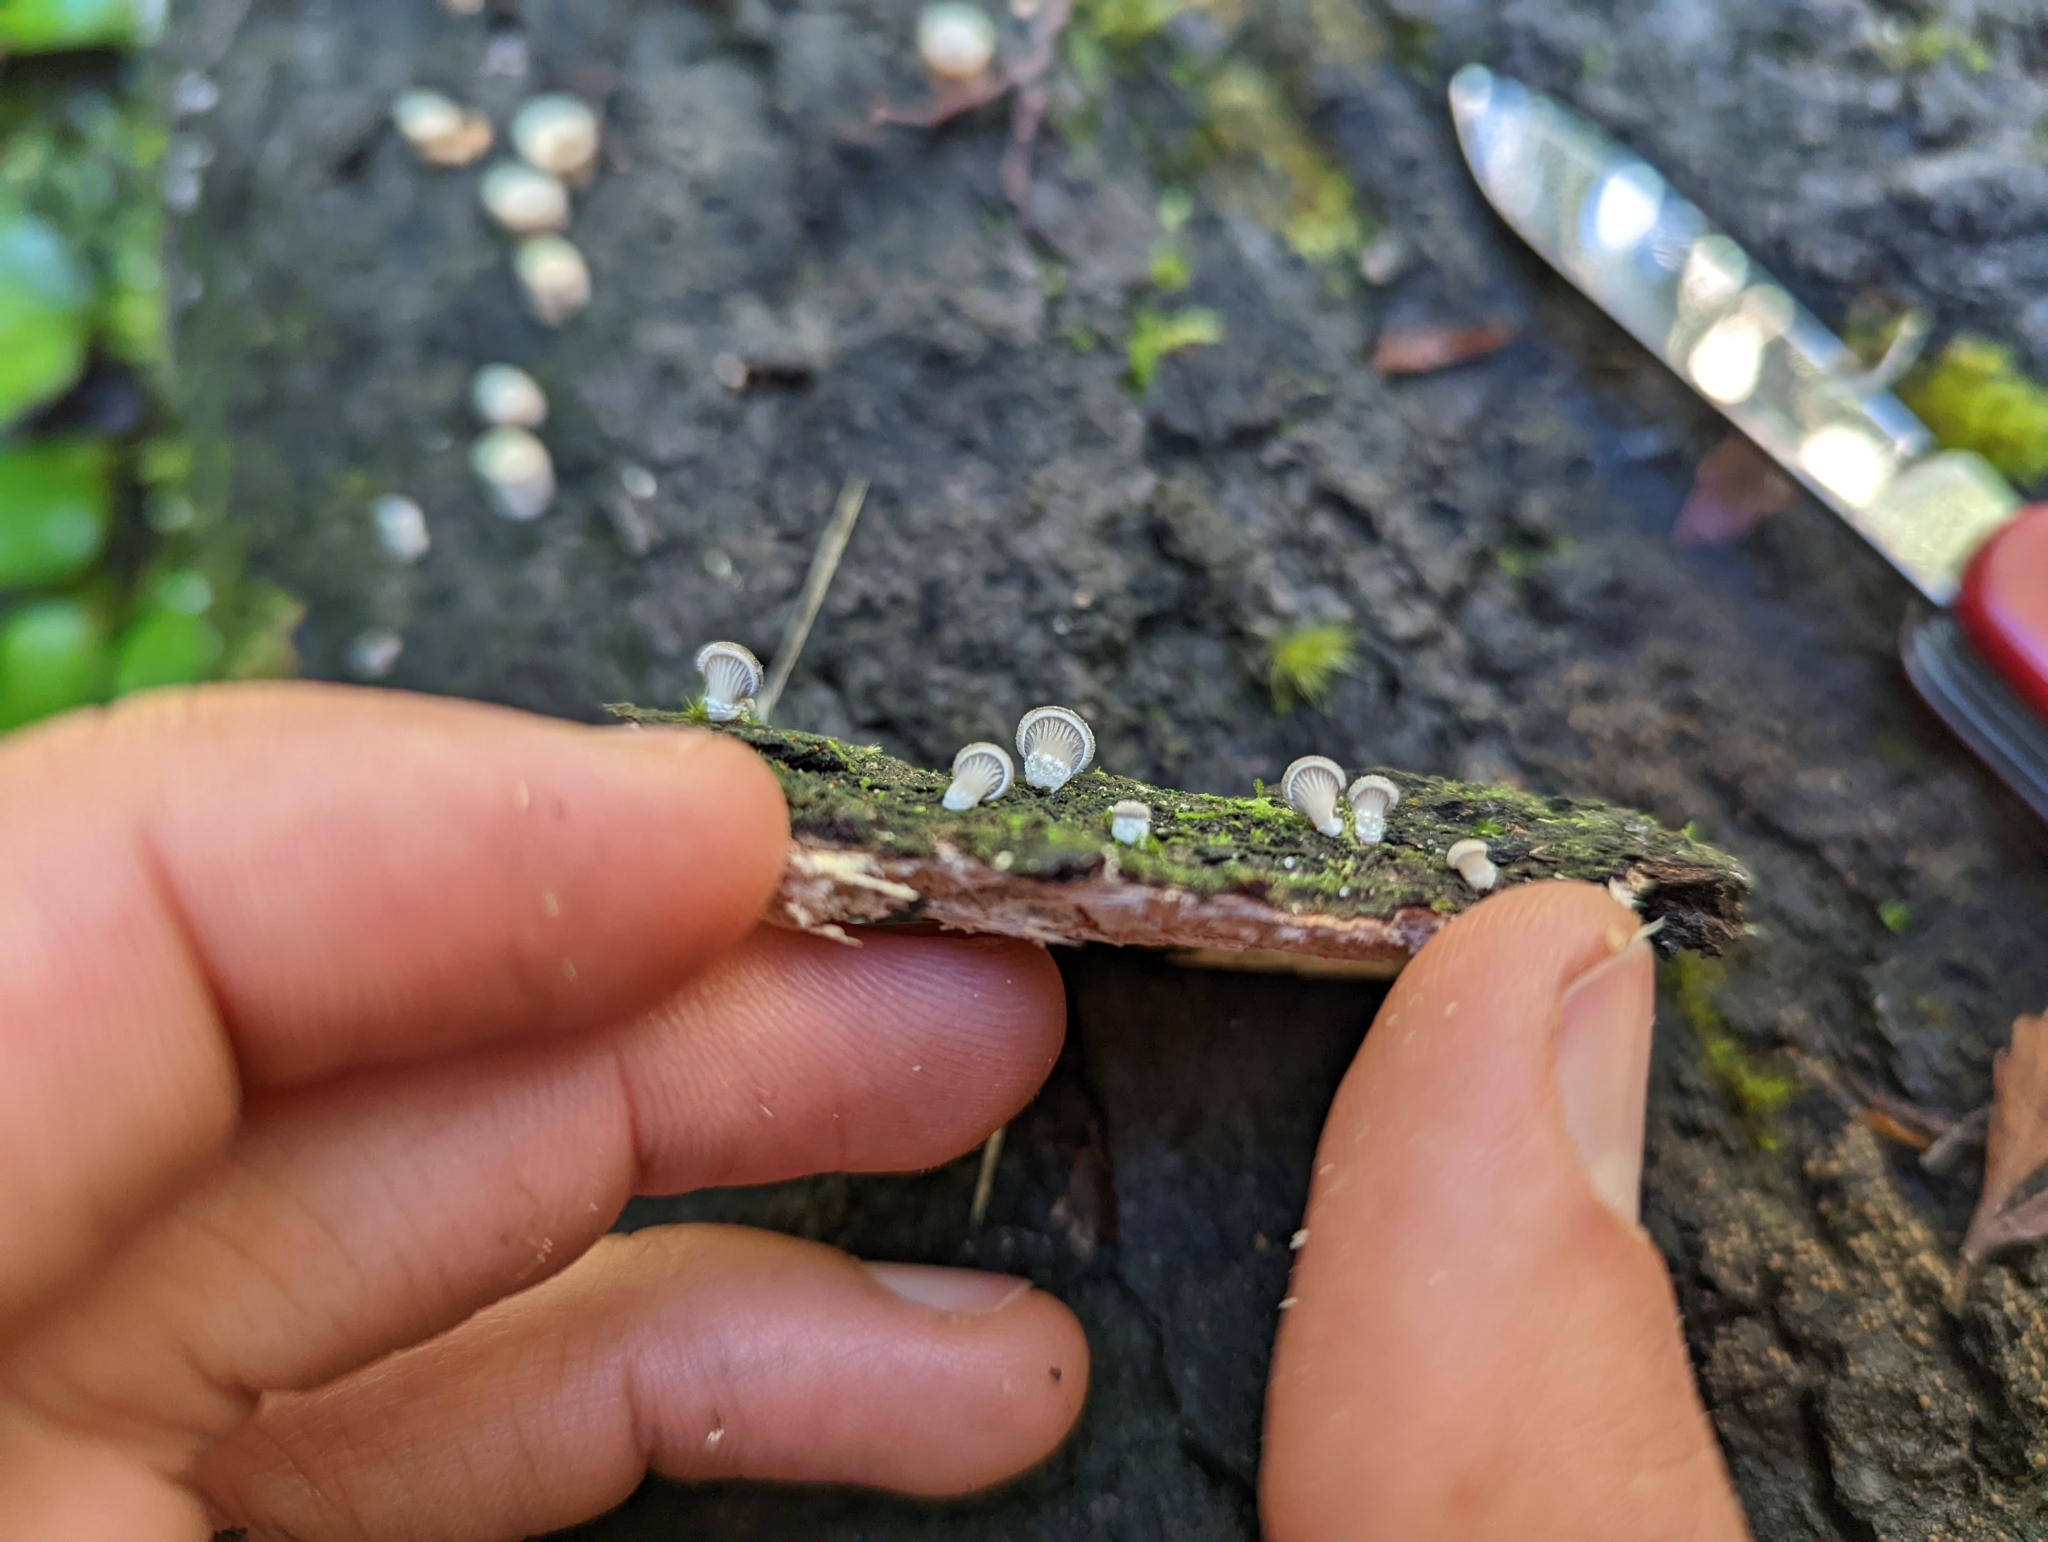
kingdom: Fungi
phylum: Basidiomycota
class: Agaricomycetes
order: Agaricales
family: Pleurotaceae
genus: Pleurotus
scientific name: Pleurotus purpureo-olivaceus
